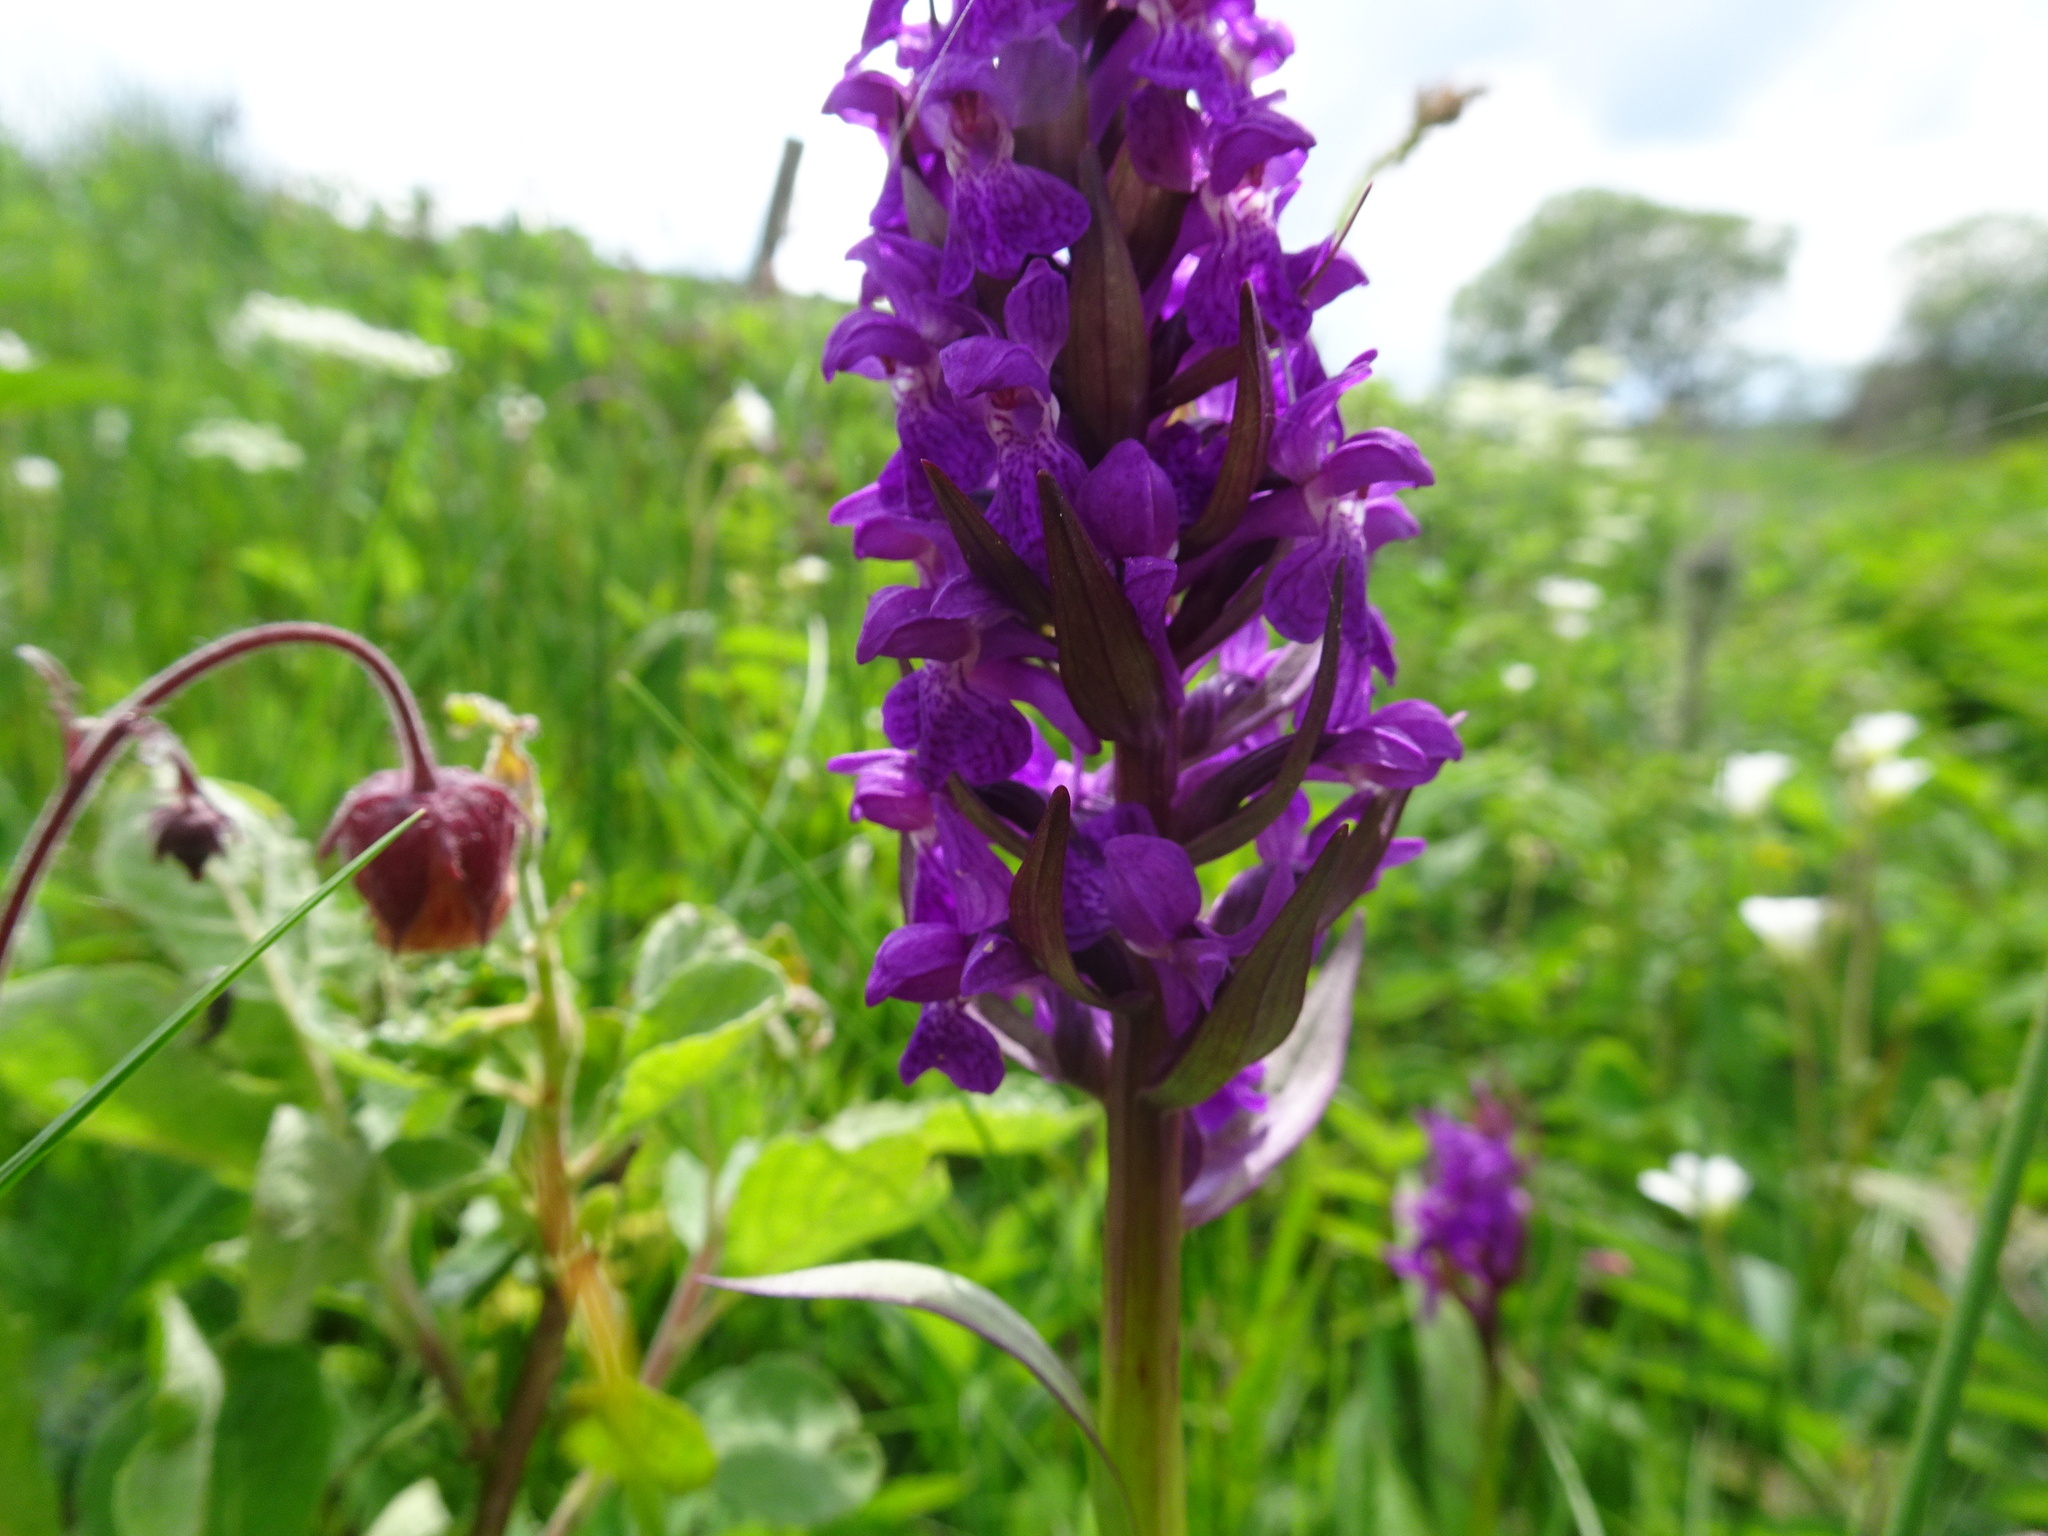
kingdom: Plantae
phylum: Tracheophyta
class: Liliopsida
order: Asparagales
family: Orchidaceae
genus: Dactylorhiza
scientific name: Dactylorhiza majalis
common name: Marsh orchid
